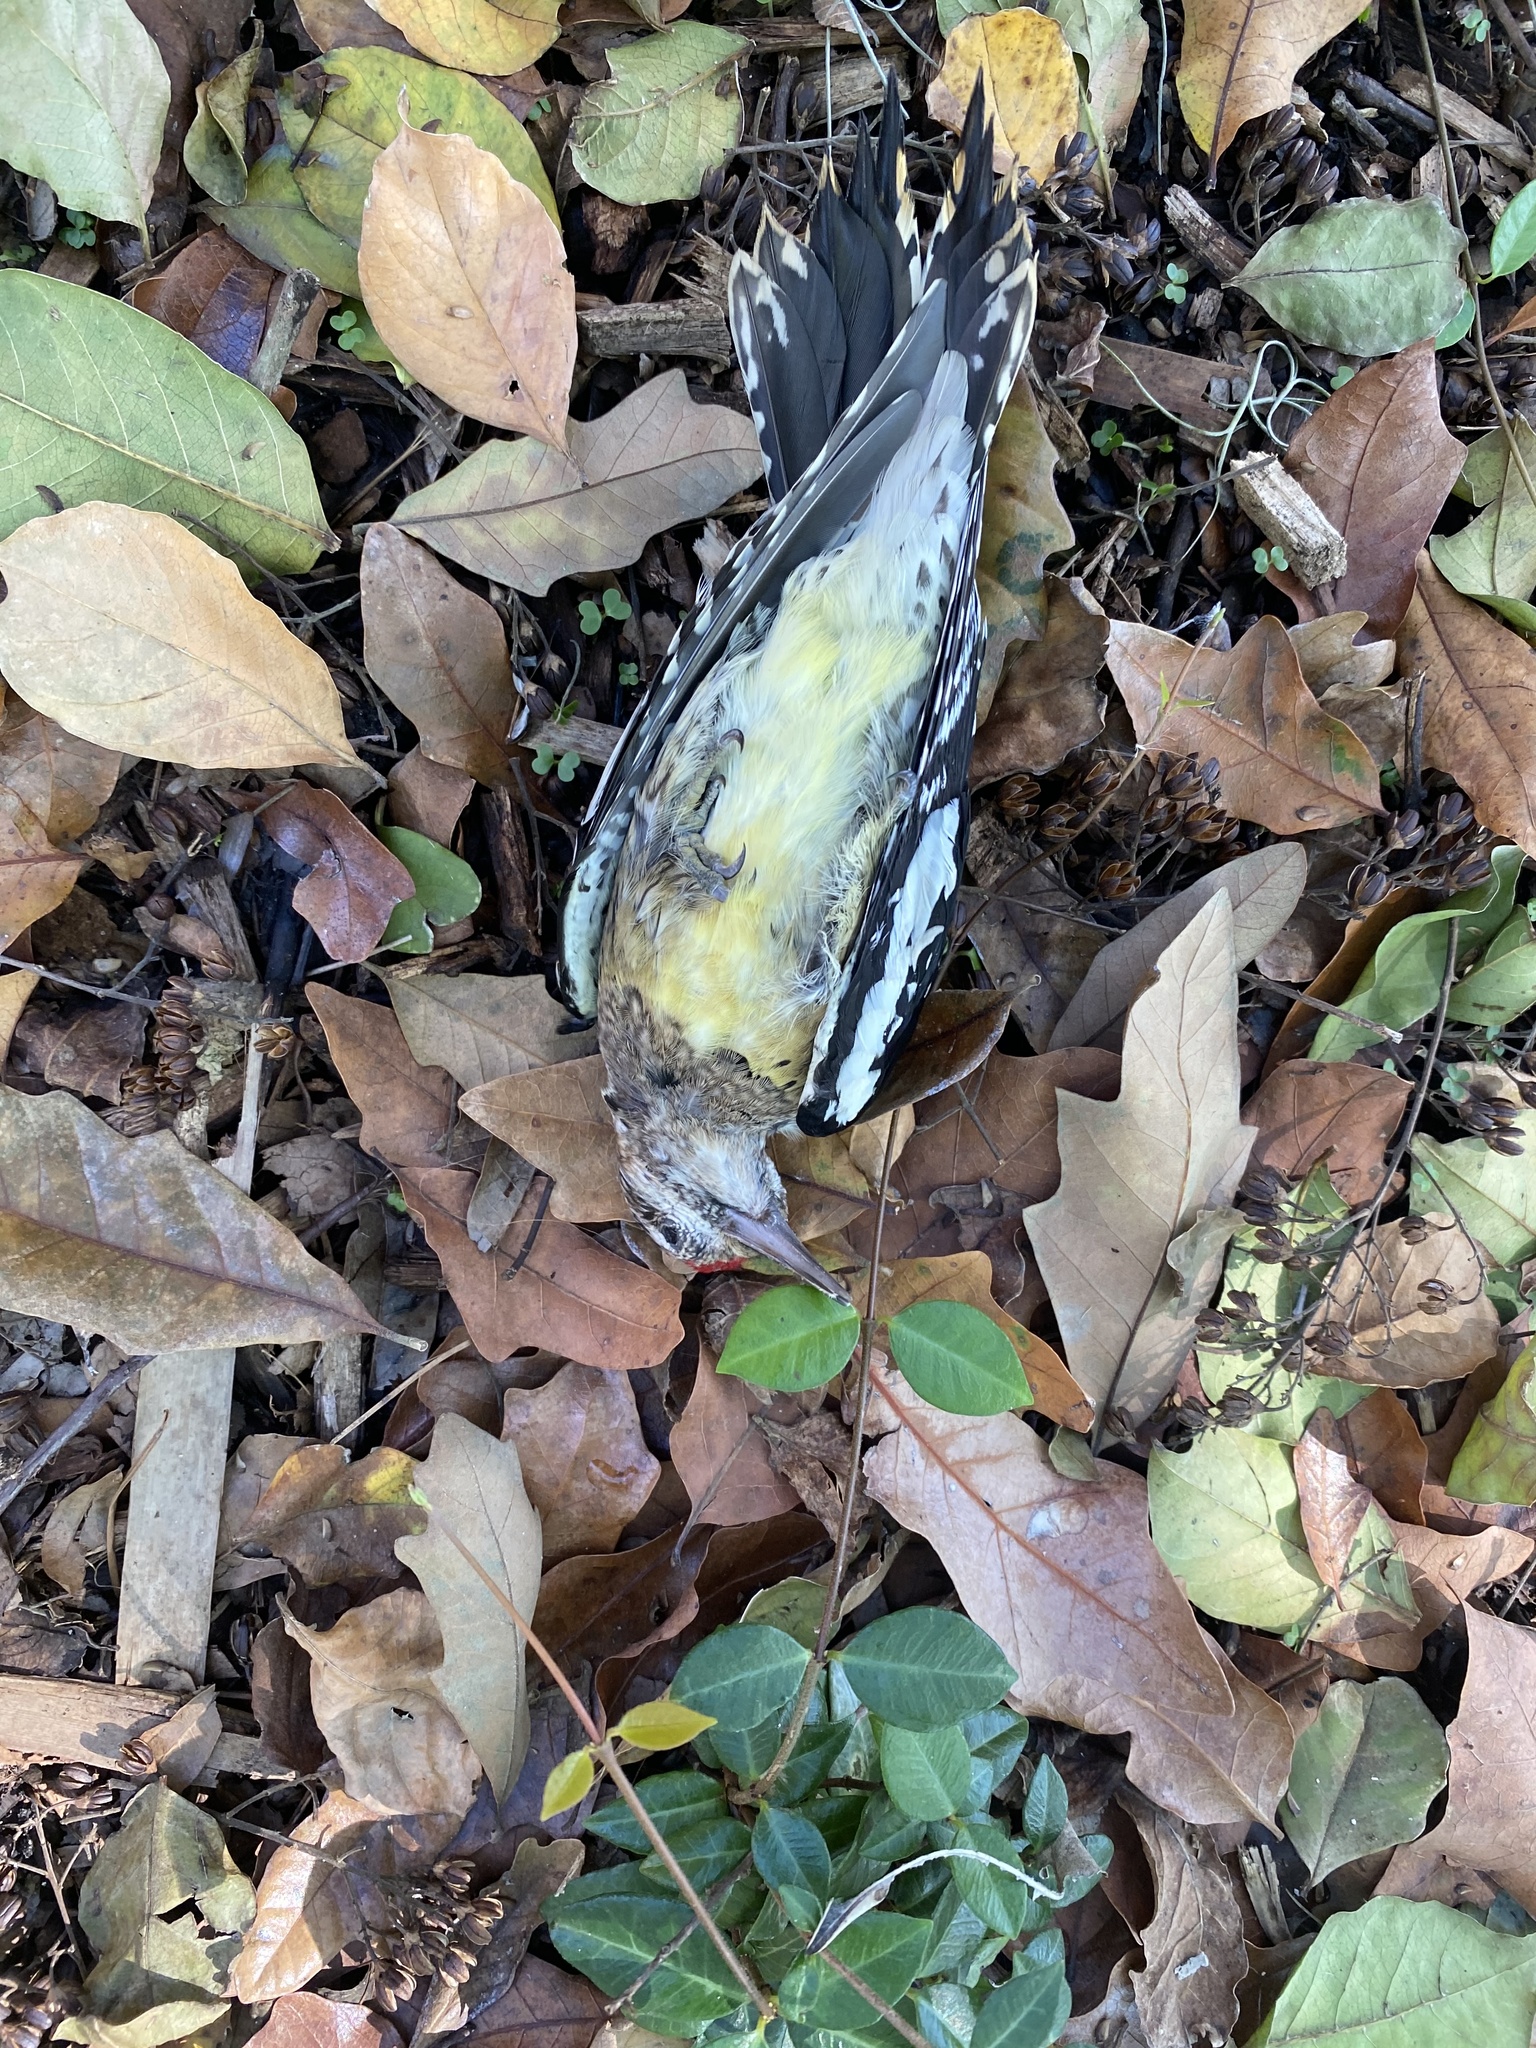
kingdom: Animalia
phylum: Chordata
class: Aves
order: Piciformes
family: Picidae
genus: Sphyrapicus
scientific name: Sphyrapicus varius
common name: Yellow-bellied sapsucker
